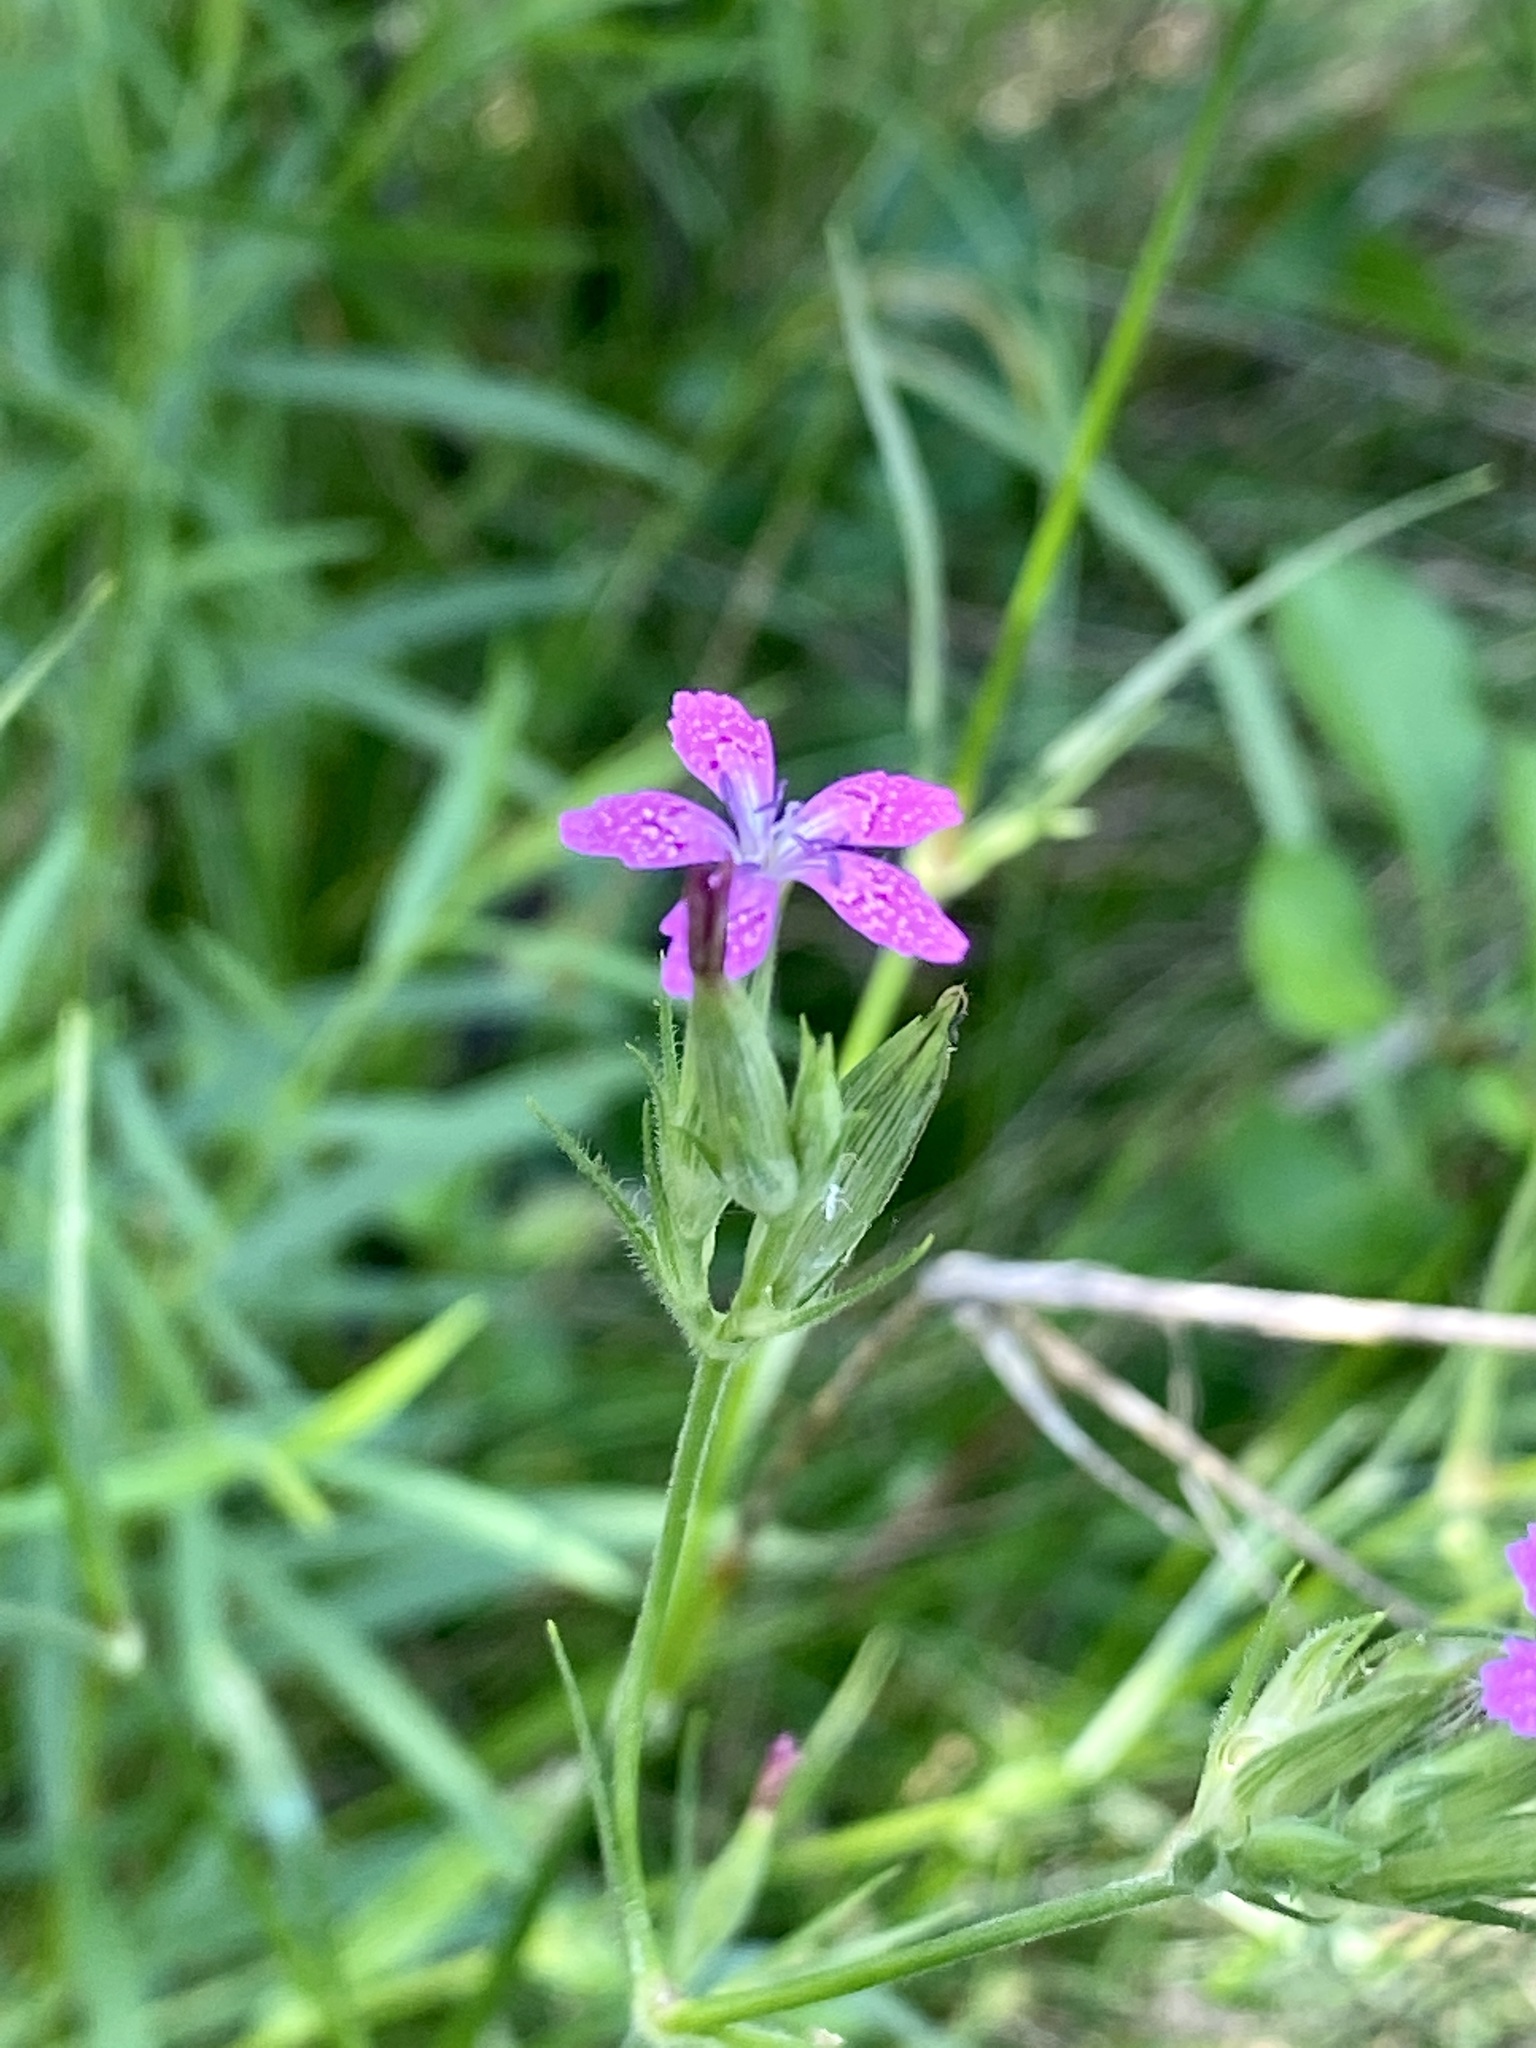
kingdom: Plantae
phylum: Tracheophyta
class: Magnoliopsida
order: Caryophyllales
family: Caryophyllaceae
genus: Dianthus
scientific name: Dianthus armeria
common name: Deptford pink
